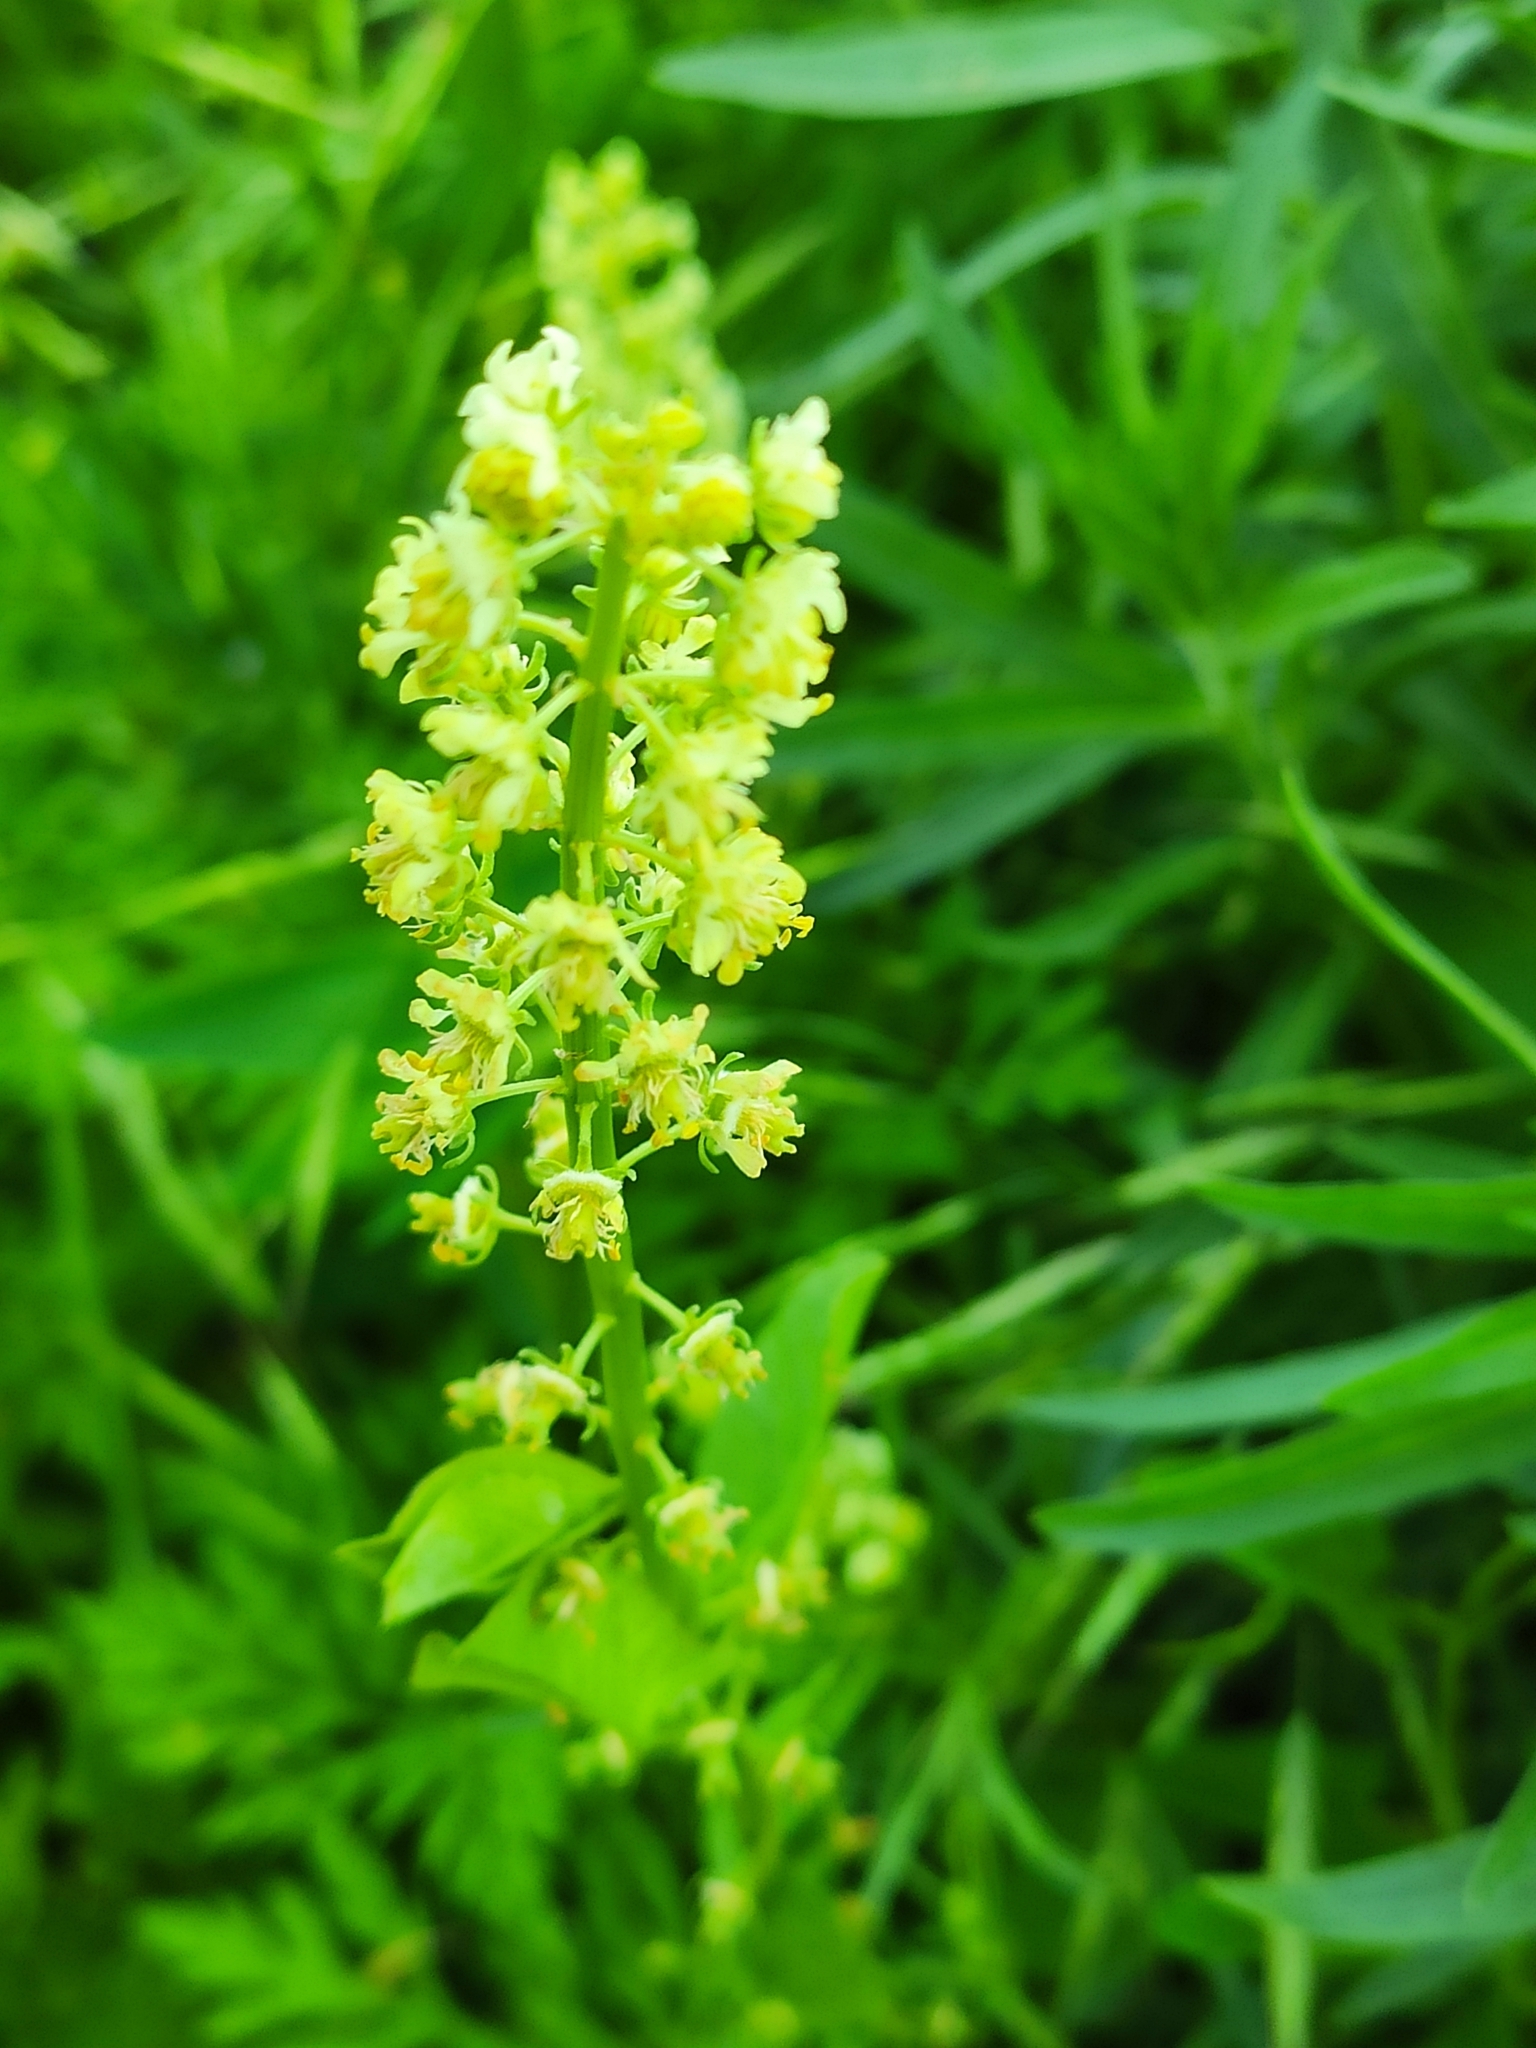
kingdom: Plantae
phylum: Tracheophyta
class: Magnoliopsida
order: Brassicales
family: Resedaceae
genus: Reseda
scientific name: Reseda lutea
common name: Wild mignonette
